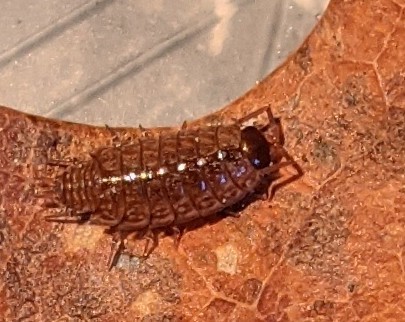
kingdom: Animalia
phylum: Arthropoda
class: Malacostraca
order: Isopoda
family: Philosciidae
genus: Philoscia
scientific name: Philoscia muscorum
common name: Common striped woodlouse
